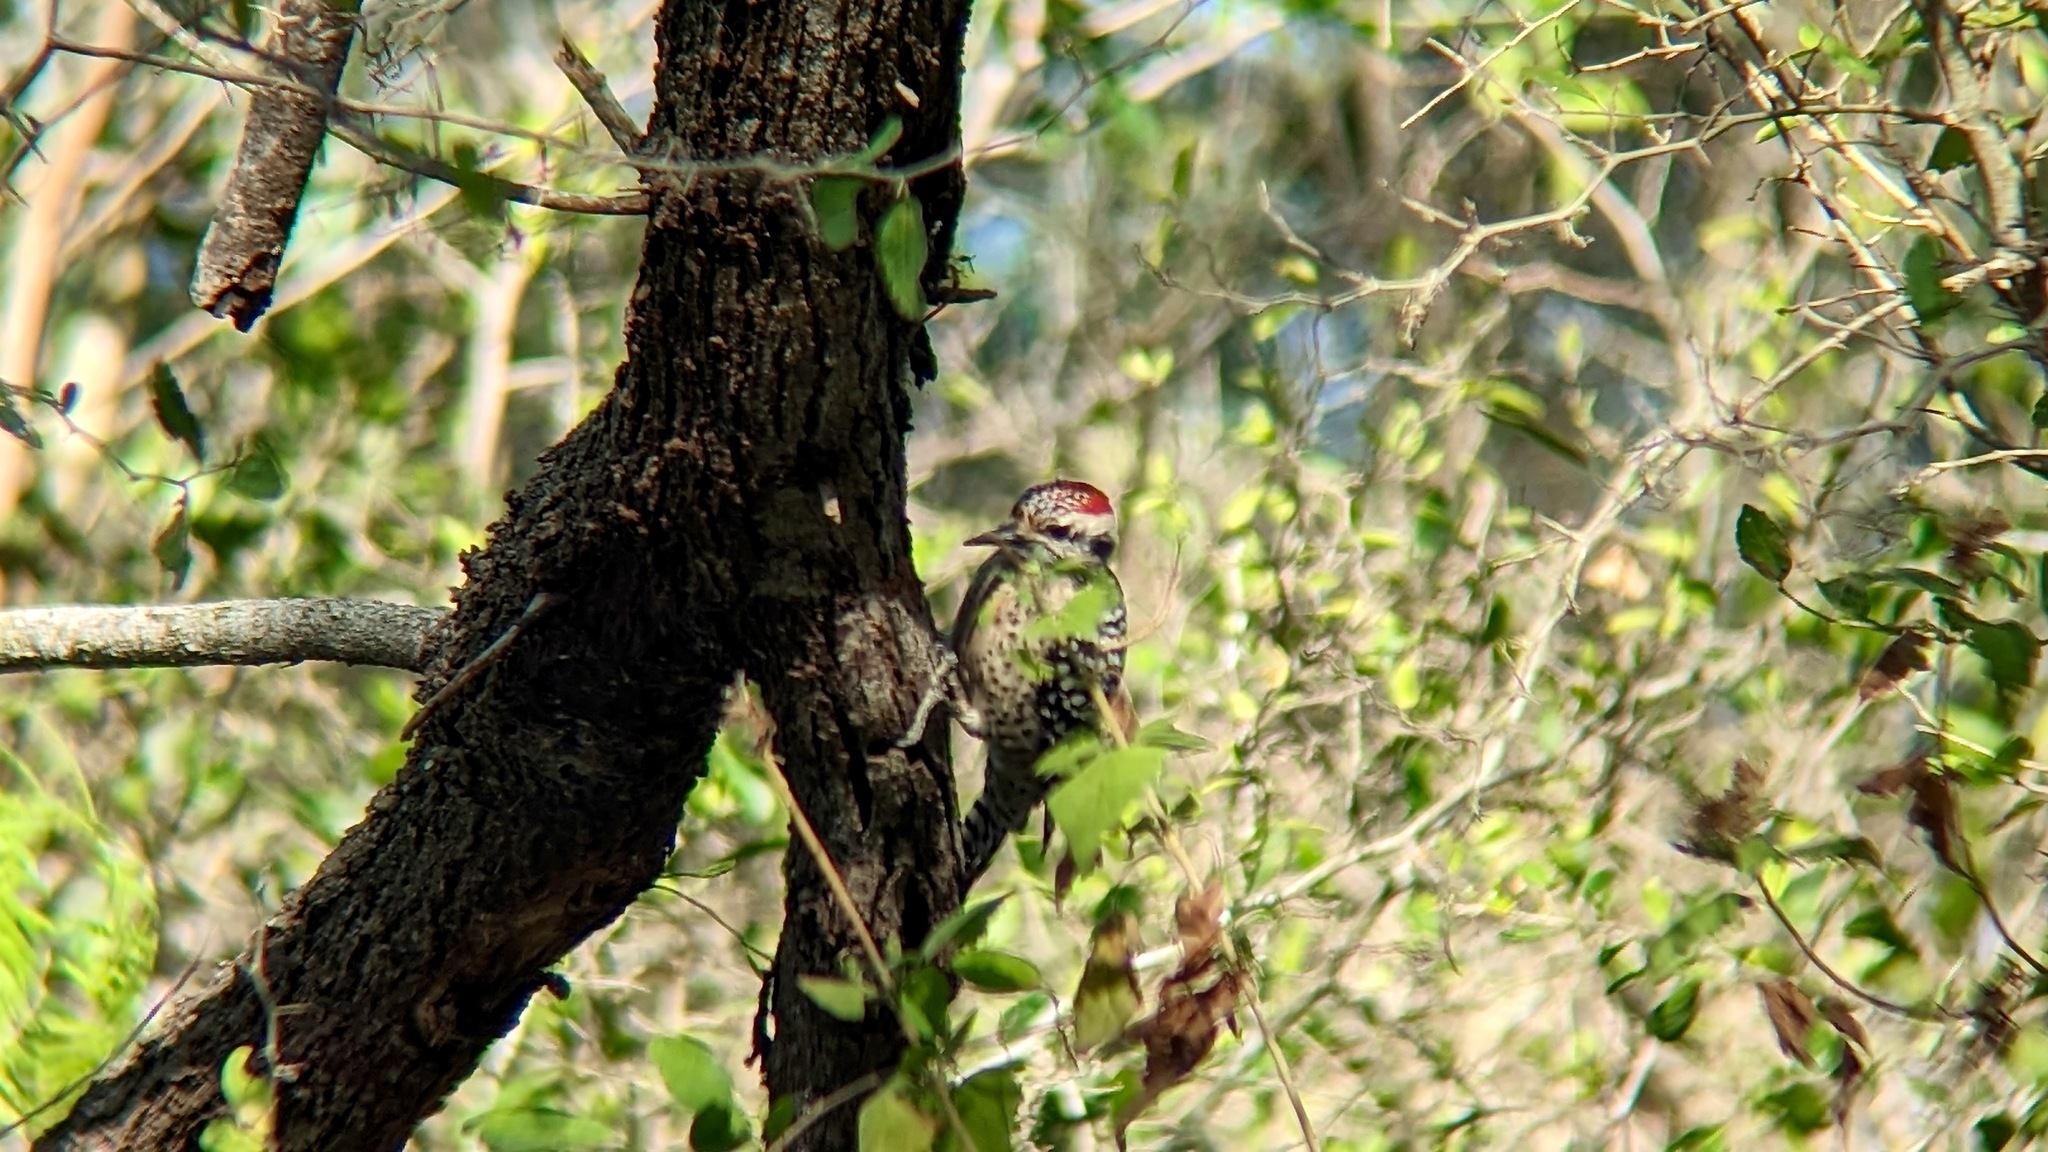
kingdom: Animalia
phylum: Chordata
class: Aves
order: Piciformes
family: Picidae
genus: Dryobates
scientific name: Dryobates scalaris
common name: Ladder-backed woodpecker
